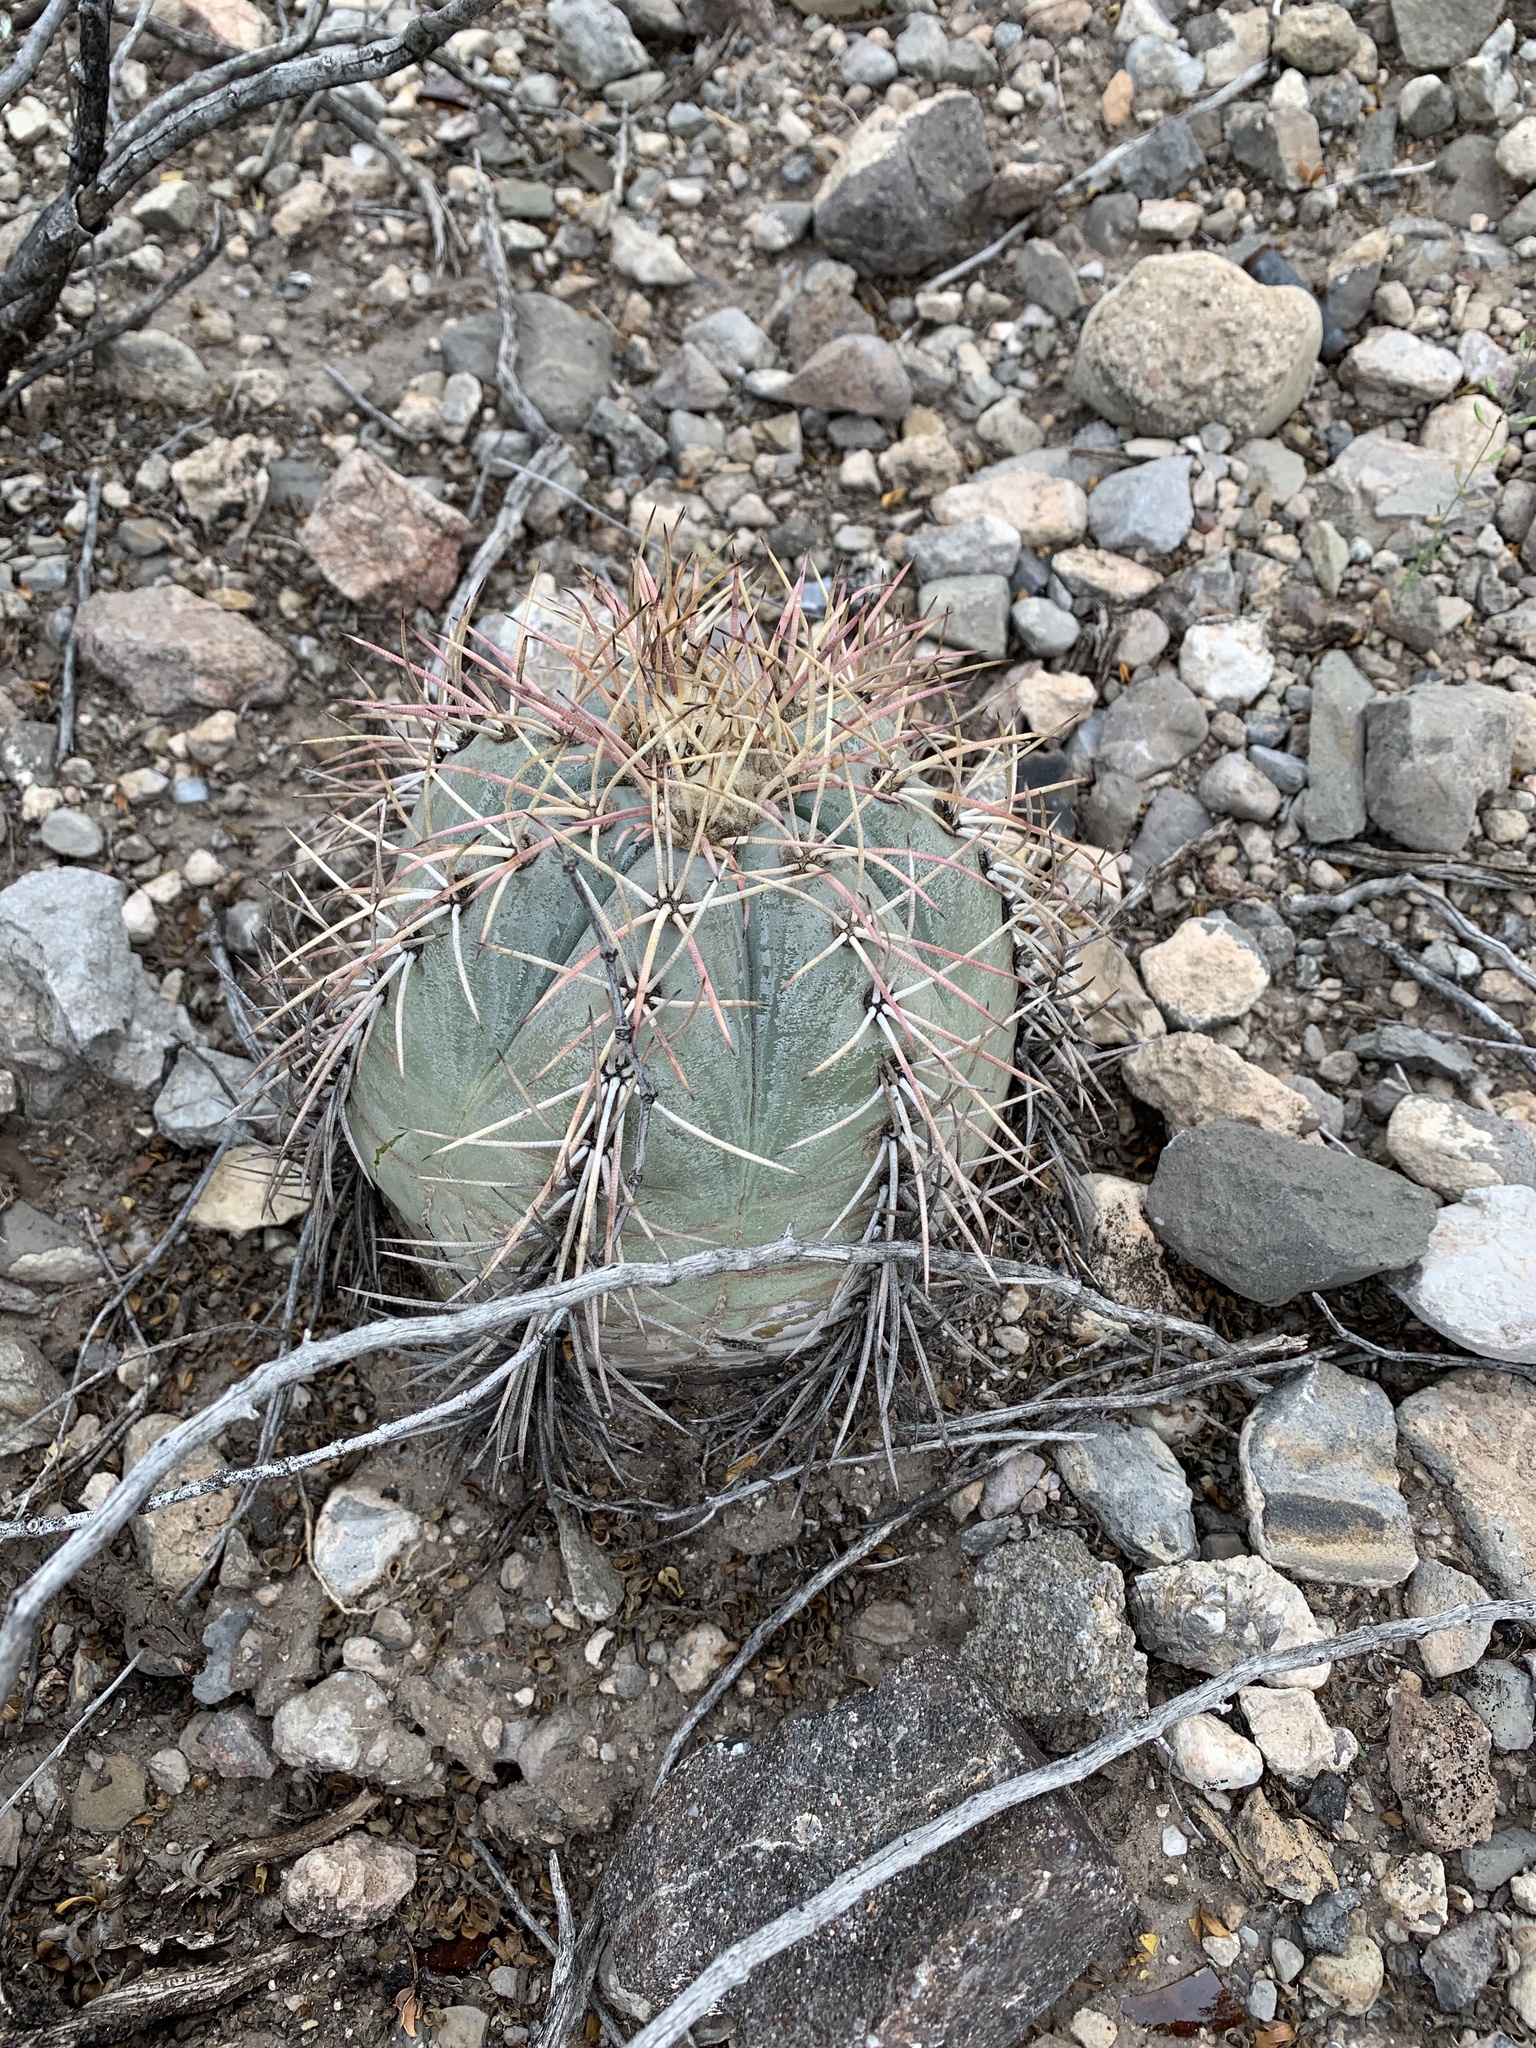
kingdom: Plantae
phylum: Tracheophyta
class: Magnoliopsida
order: Caryophyllales
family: Cactaceae
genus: Echinocactus
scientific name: Echinocactus horizonthalonius
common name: Devilshead
